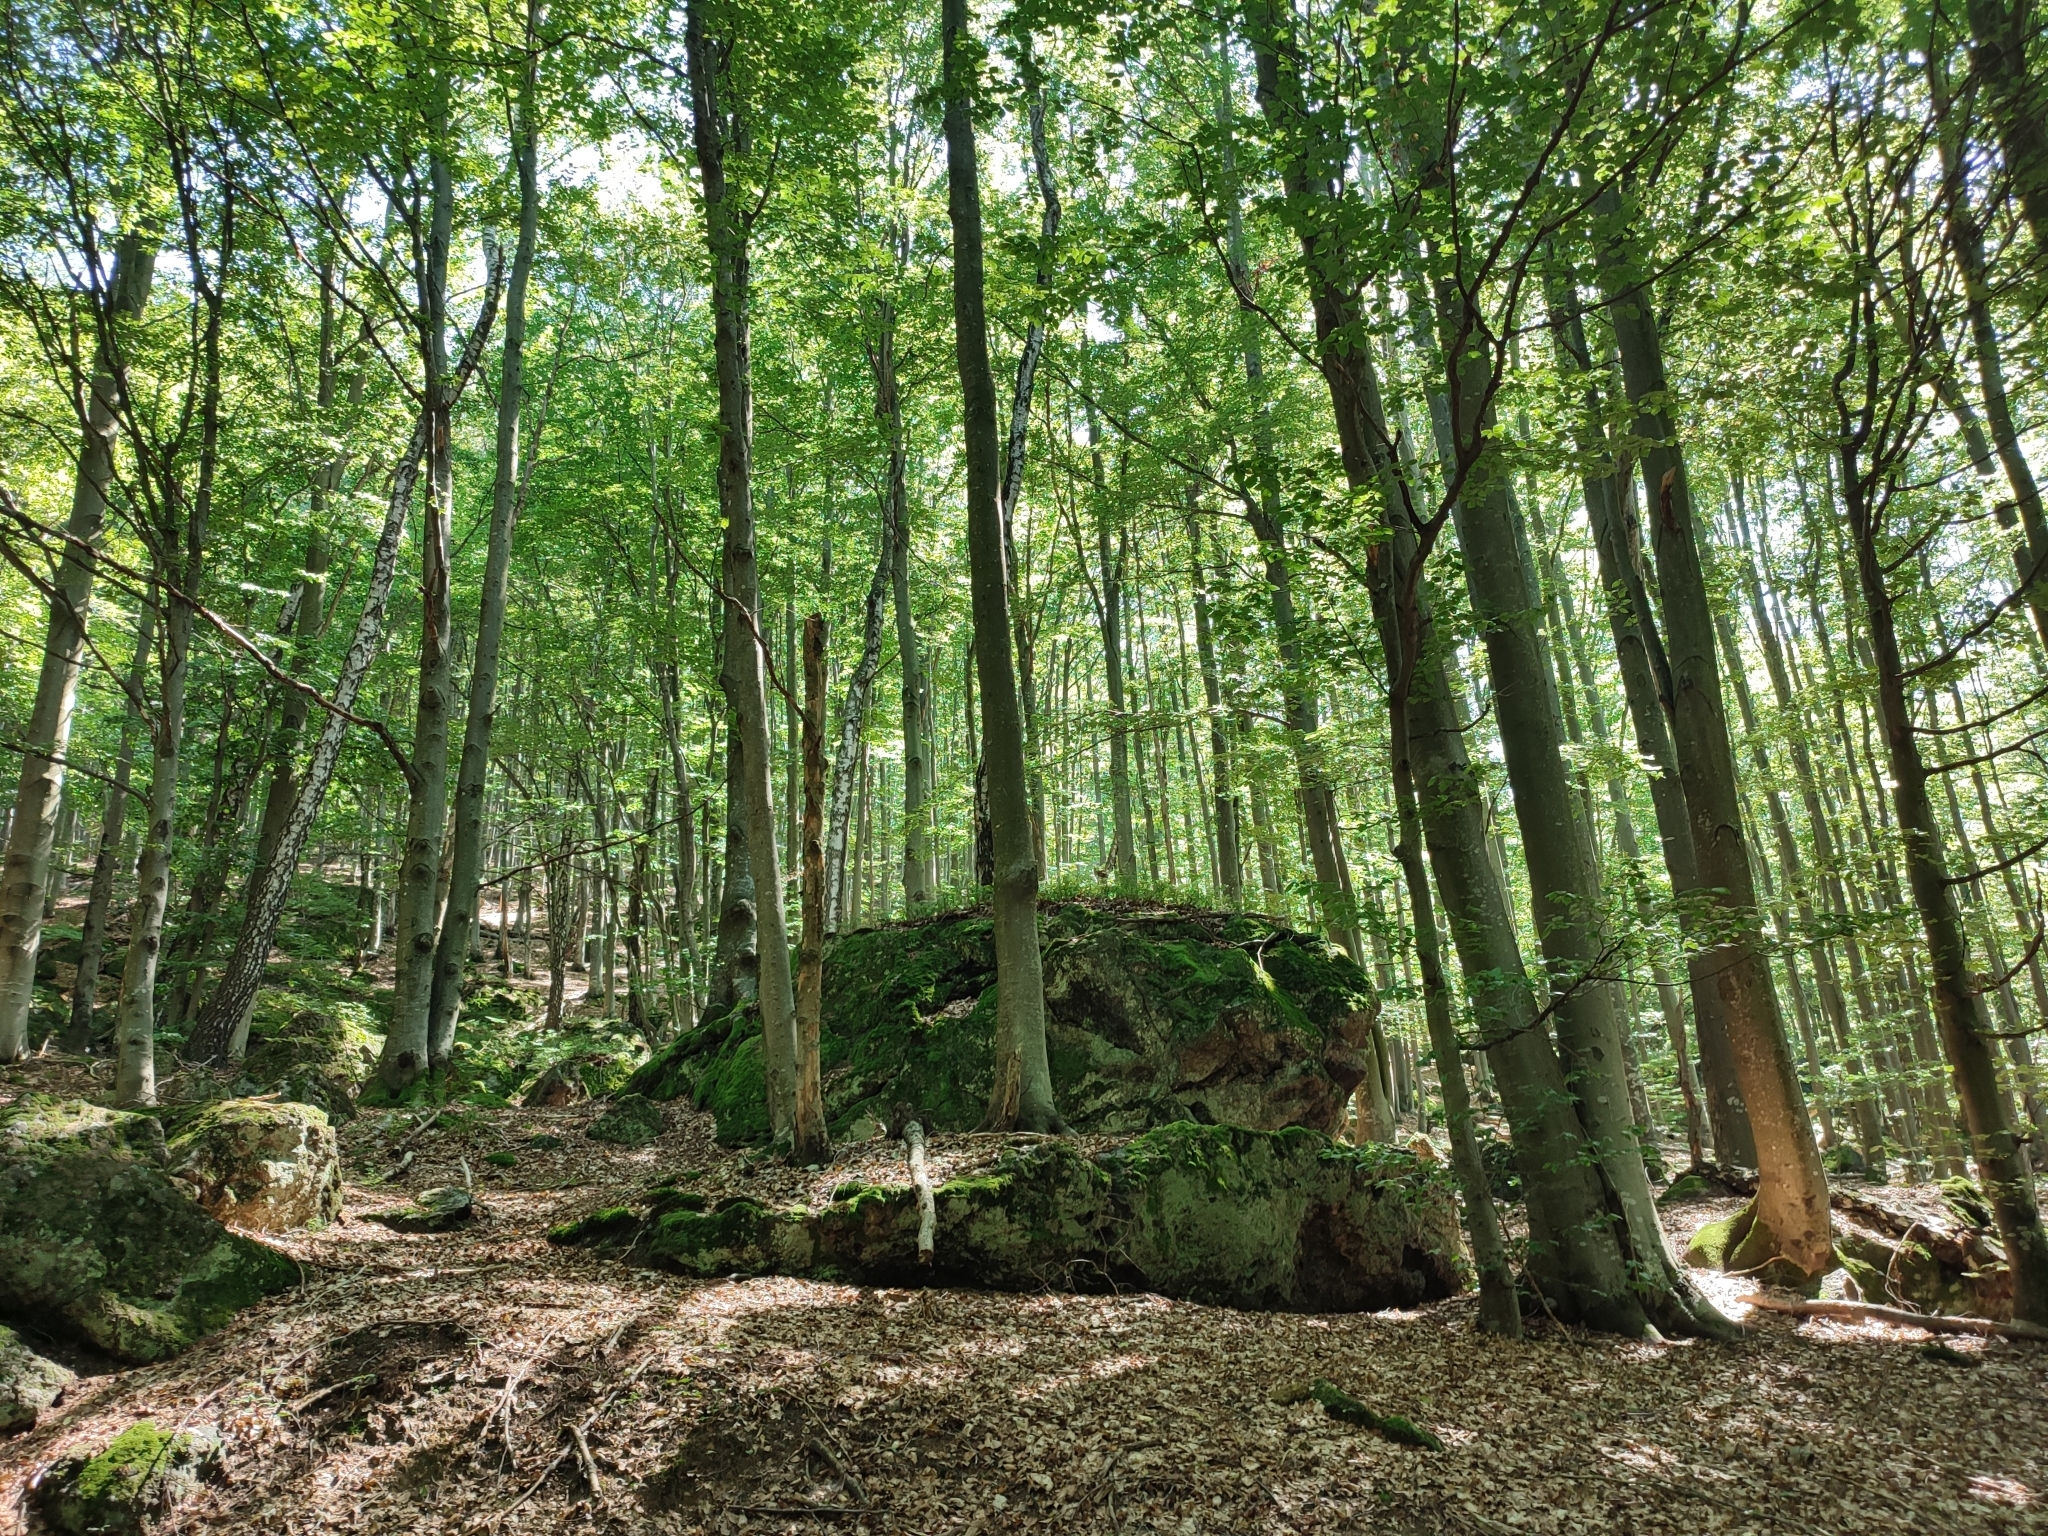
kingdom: Plantae
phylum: Tracheophyta
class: Magnoliopsida
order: Fagales
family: Fagaceae
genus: Fagus
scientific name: Fagus sylvatica
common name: Beech
